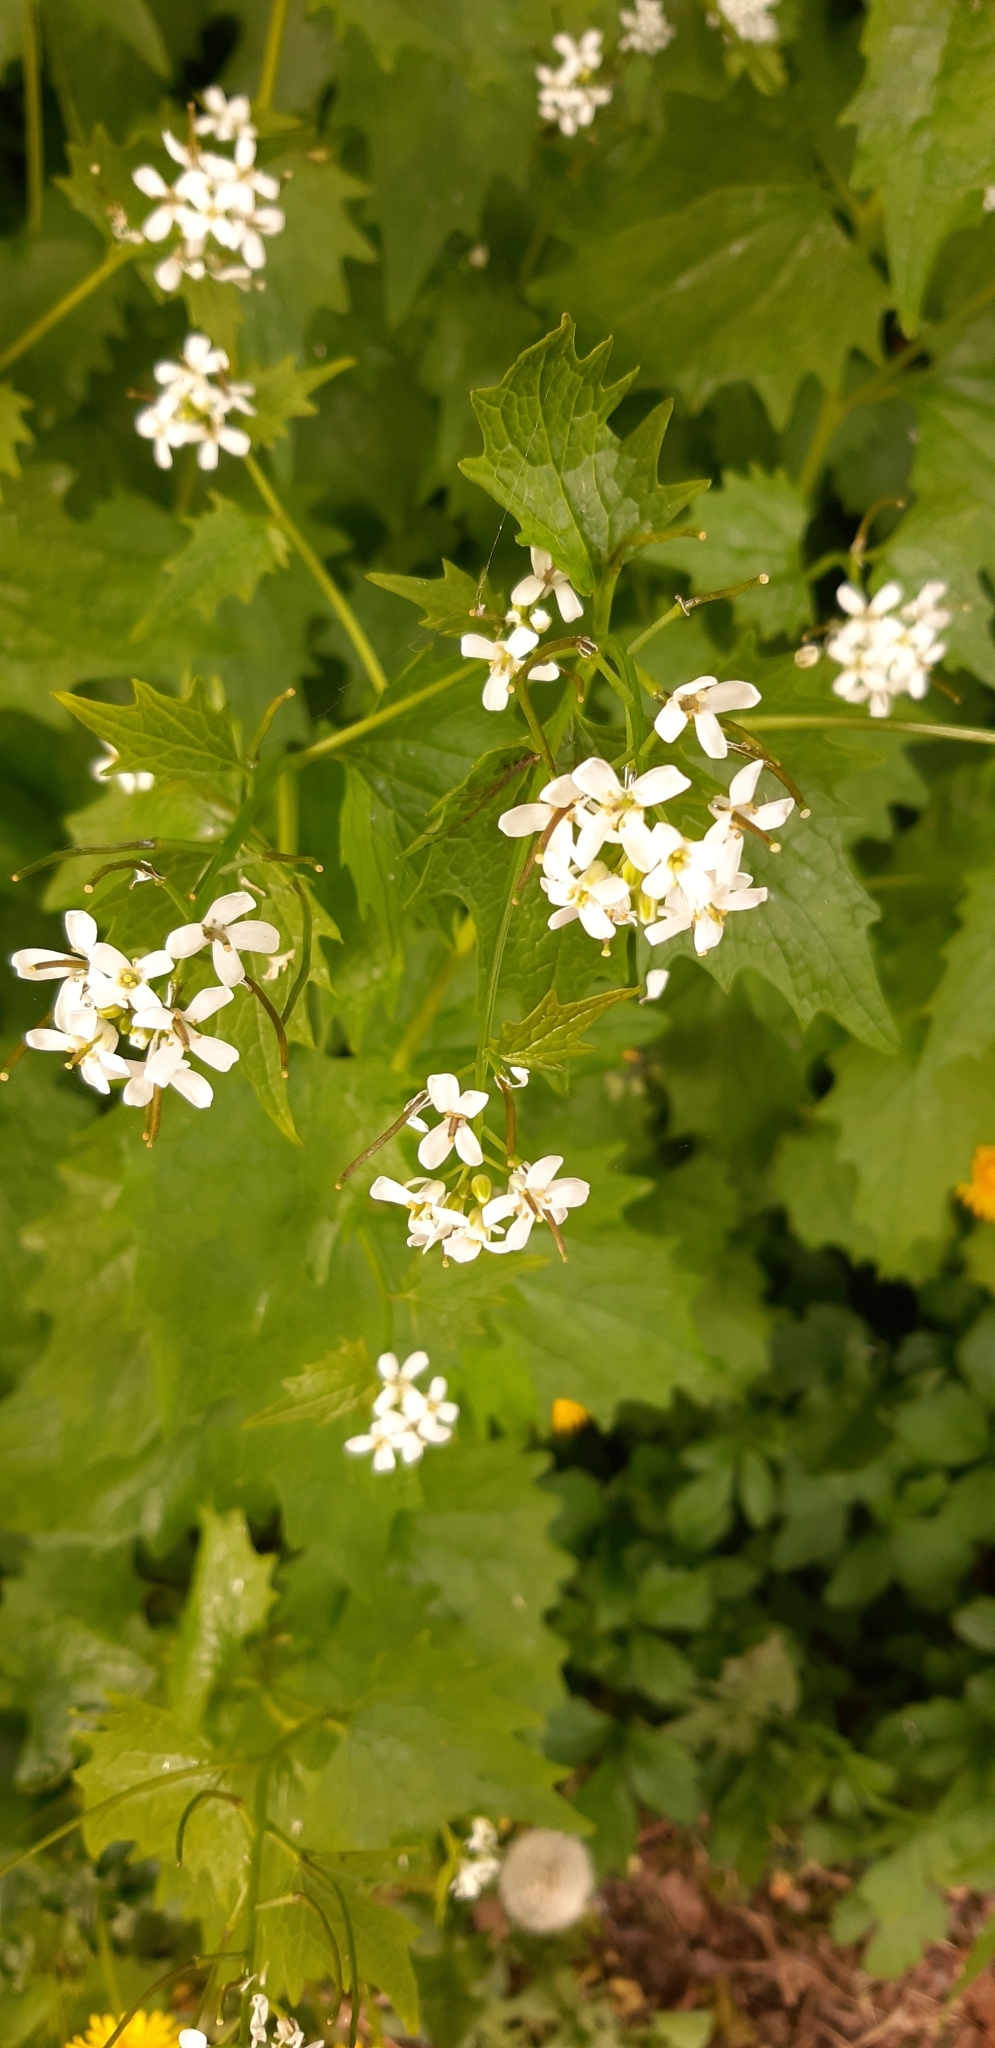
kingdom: Plantae
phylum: Tracheophyta
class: Magnoliopsida
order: Brassicales
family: Brassicaceae
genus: Alliaria
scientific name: Alliaria petiolata
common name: Garlic mustard
